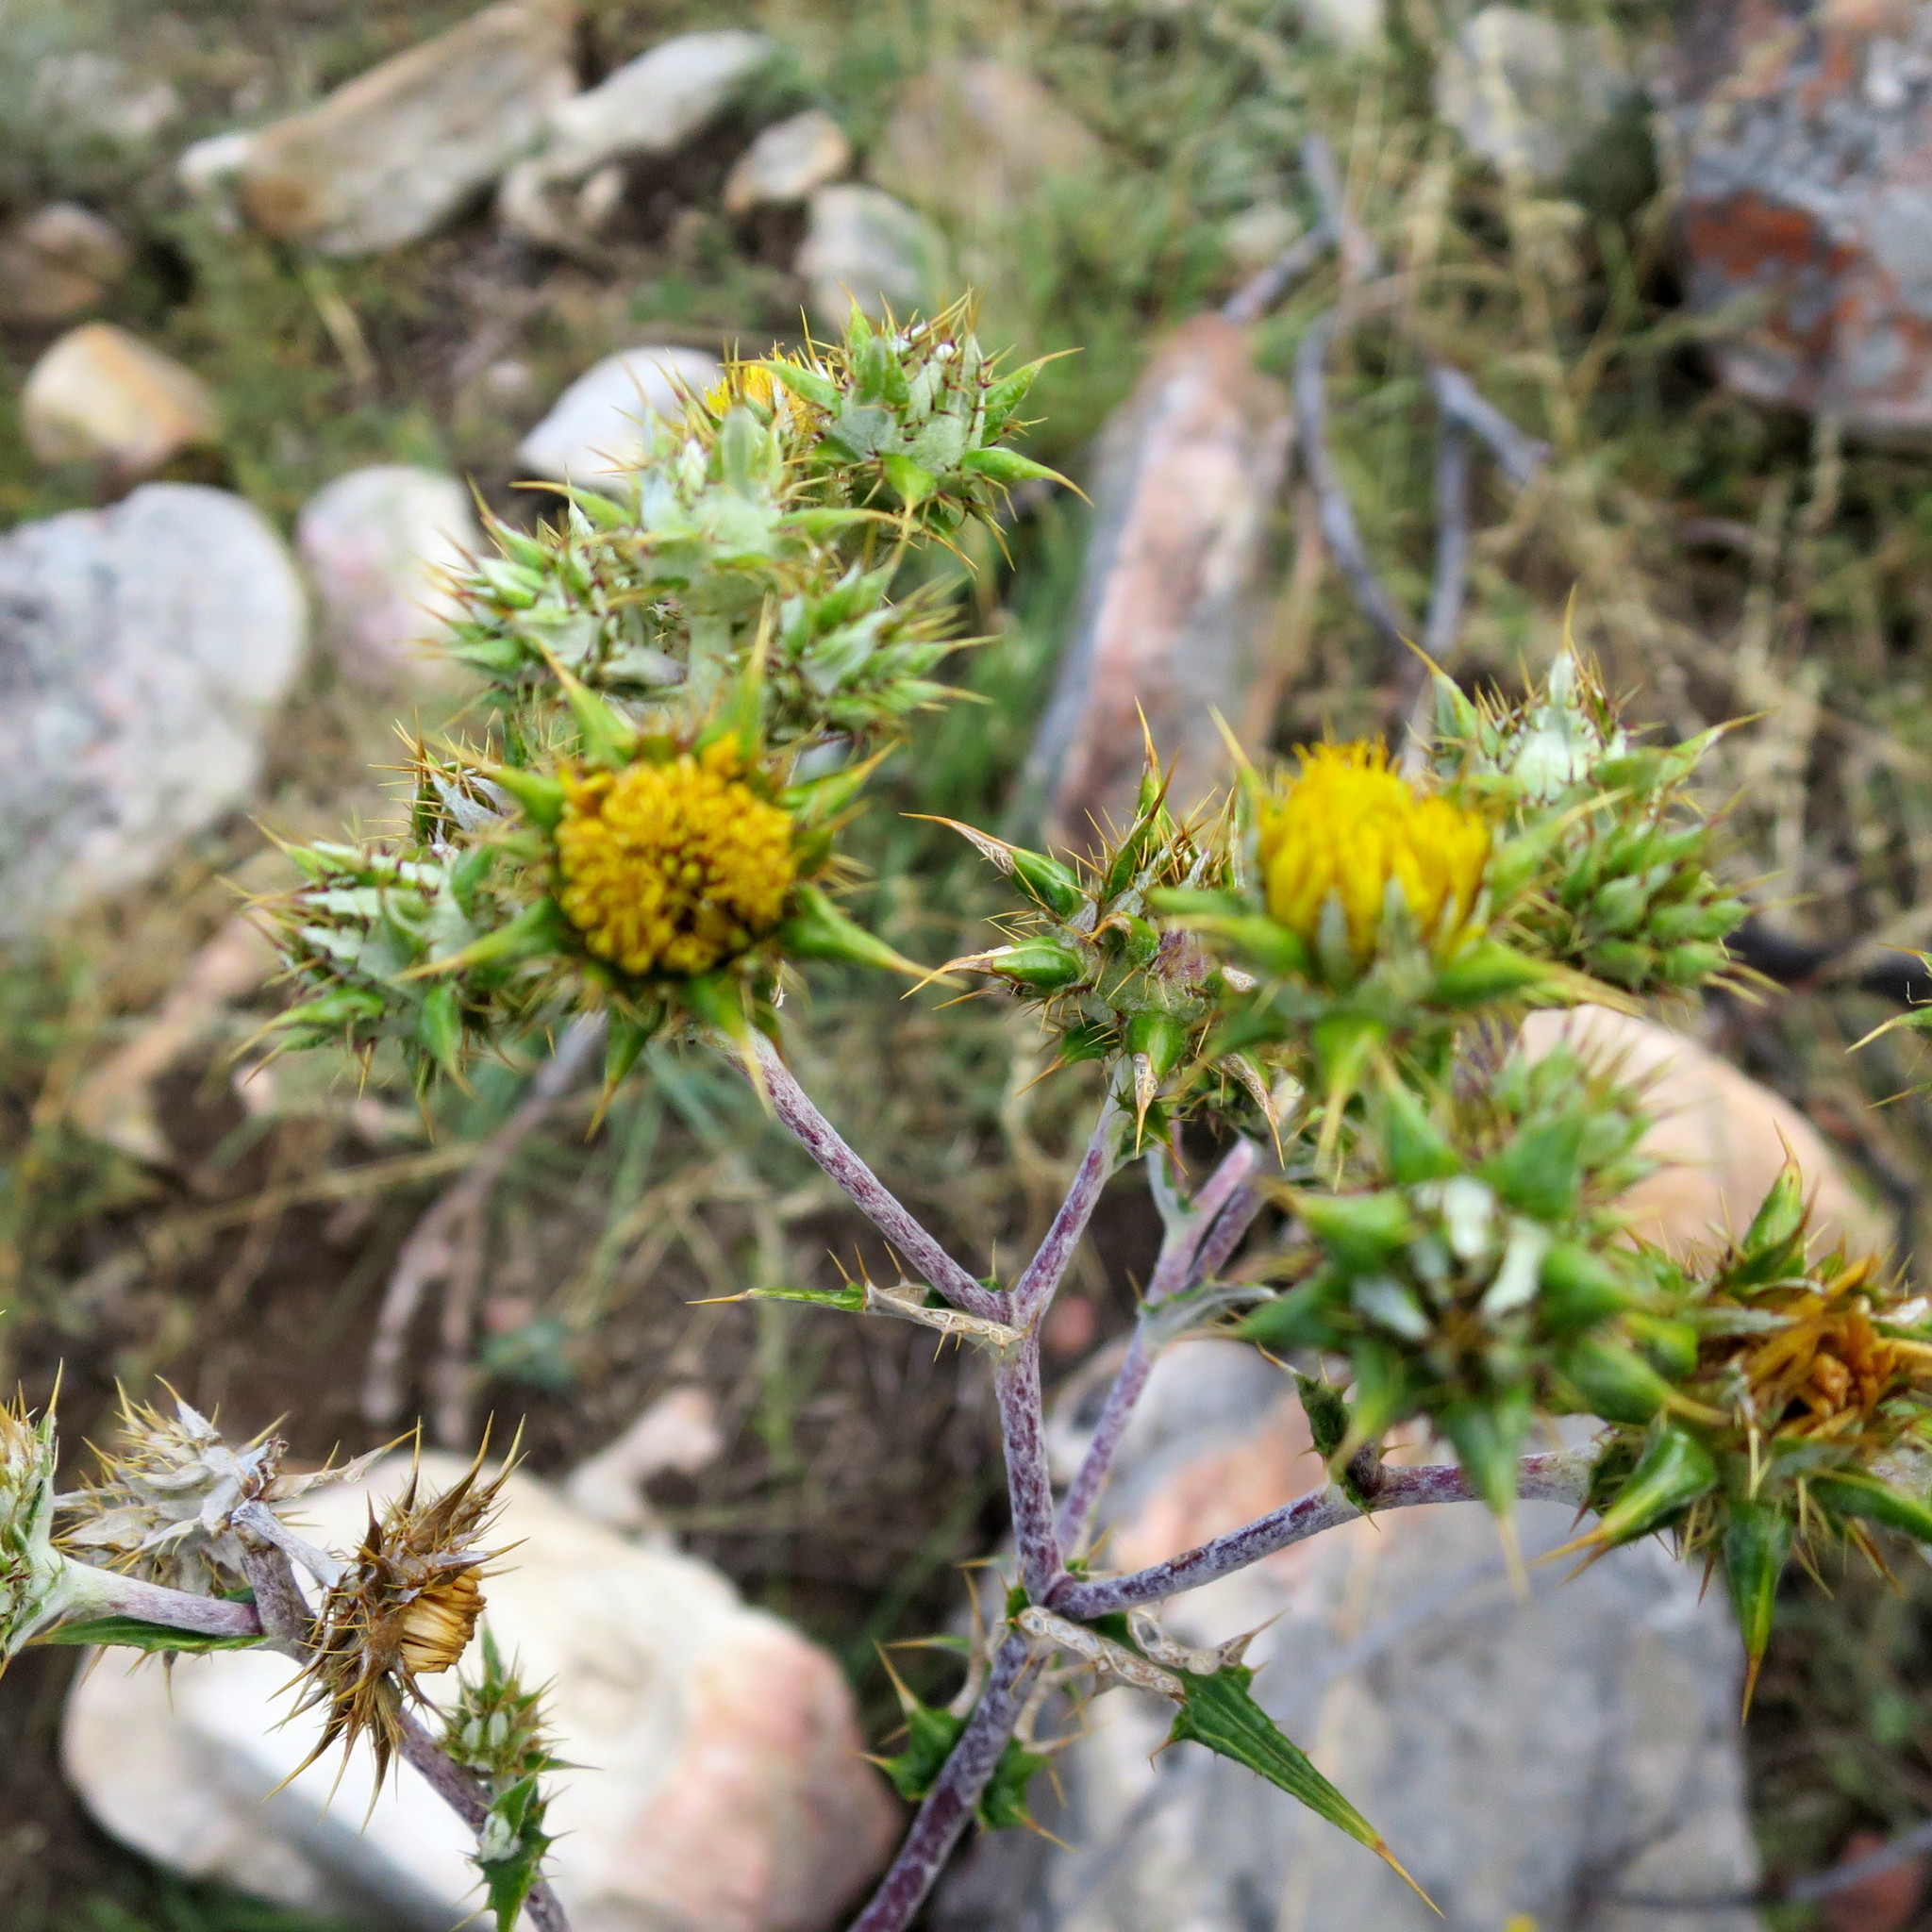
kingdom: Plantae
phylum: Tracheophyta
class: Magnoliopsida
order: Asterales
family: Asteraceae
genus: Berkheya
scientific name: Berkheya heterophylla
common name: Prickly gousblom
